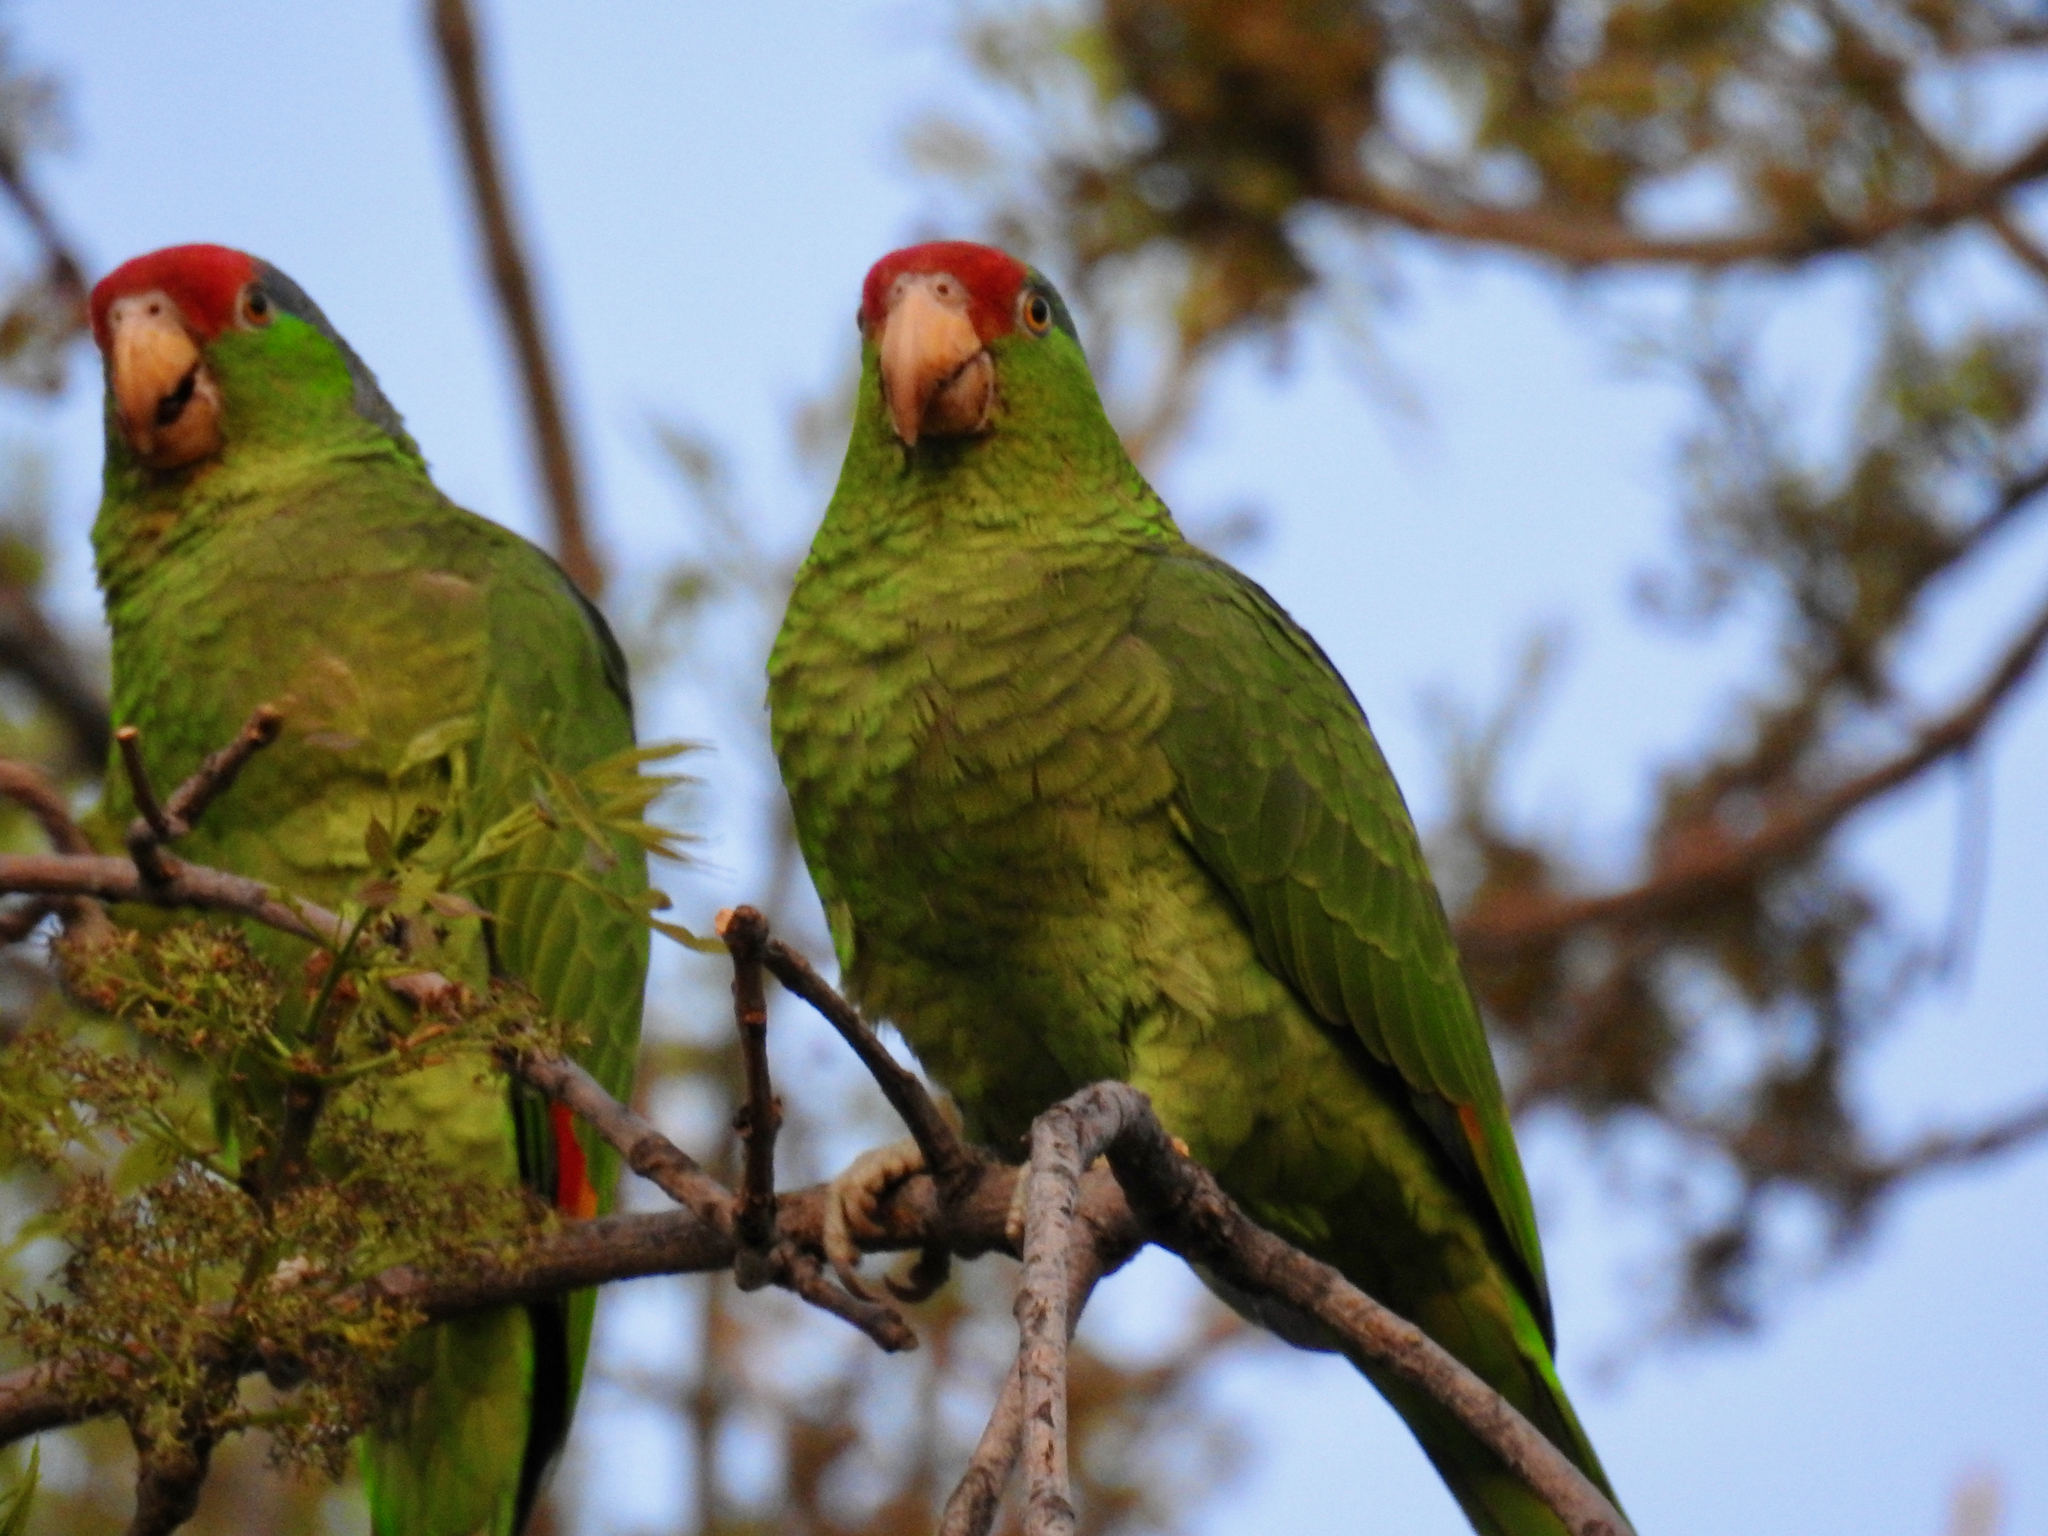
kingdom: Animalia
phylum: Chordata
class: Aves
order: Psittaciformes
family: Psittacidae
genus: Amazona
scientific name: Amazona viridigenalis
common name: Red-crowned amazon
